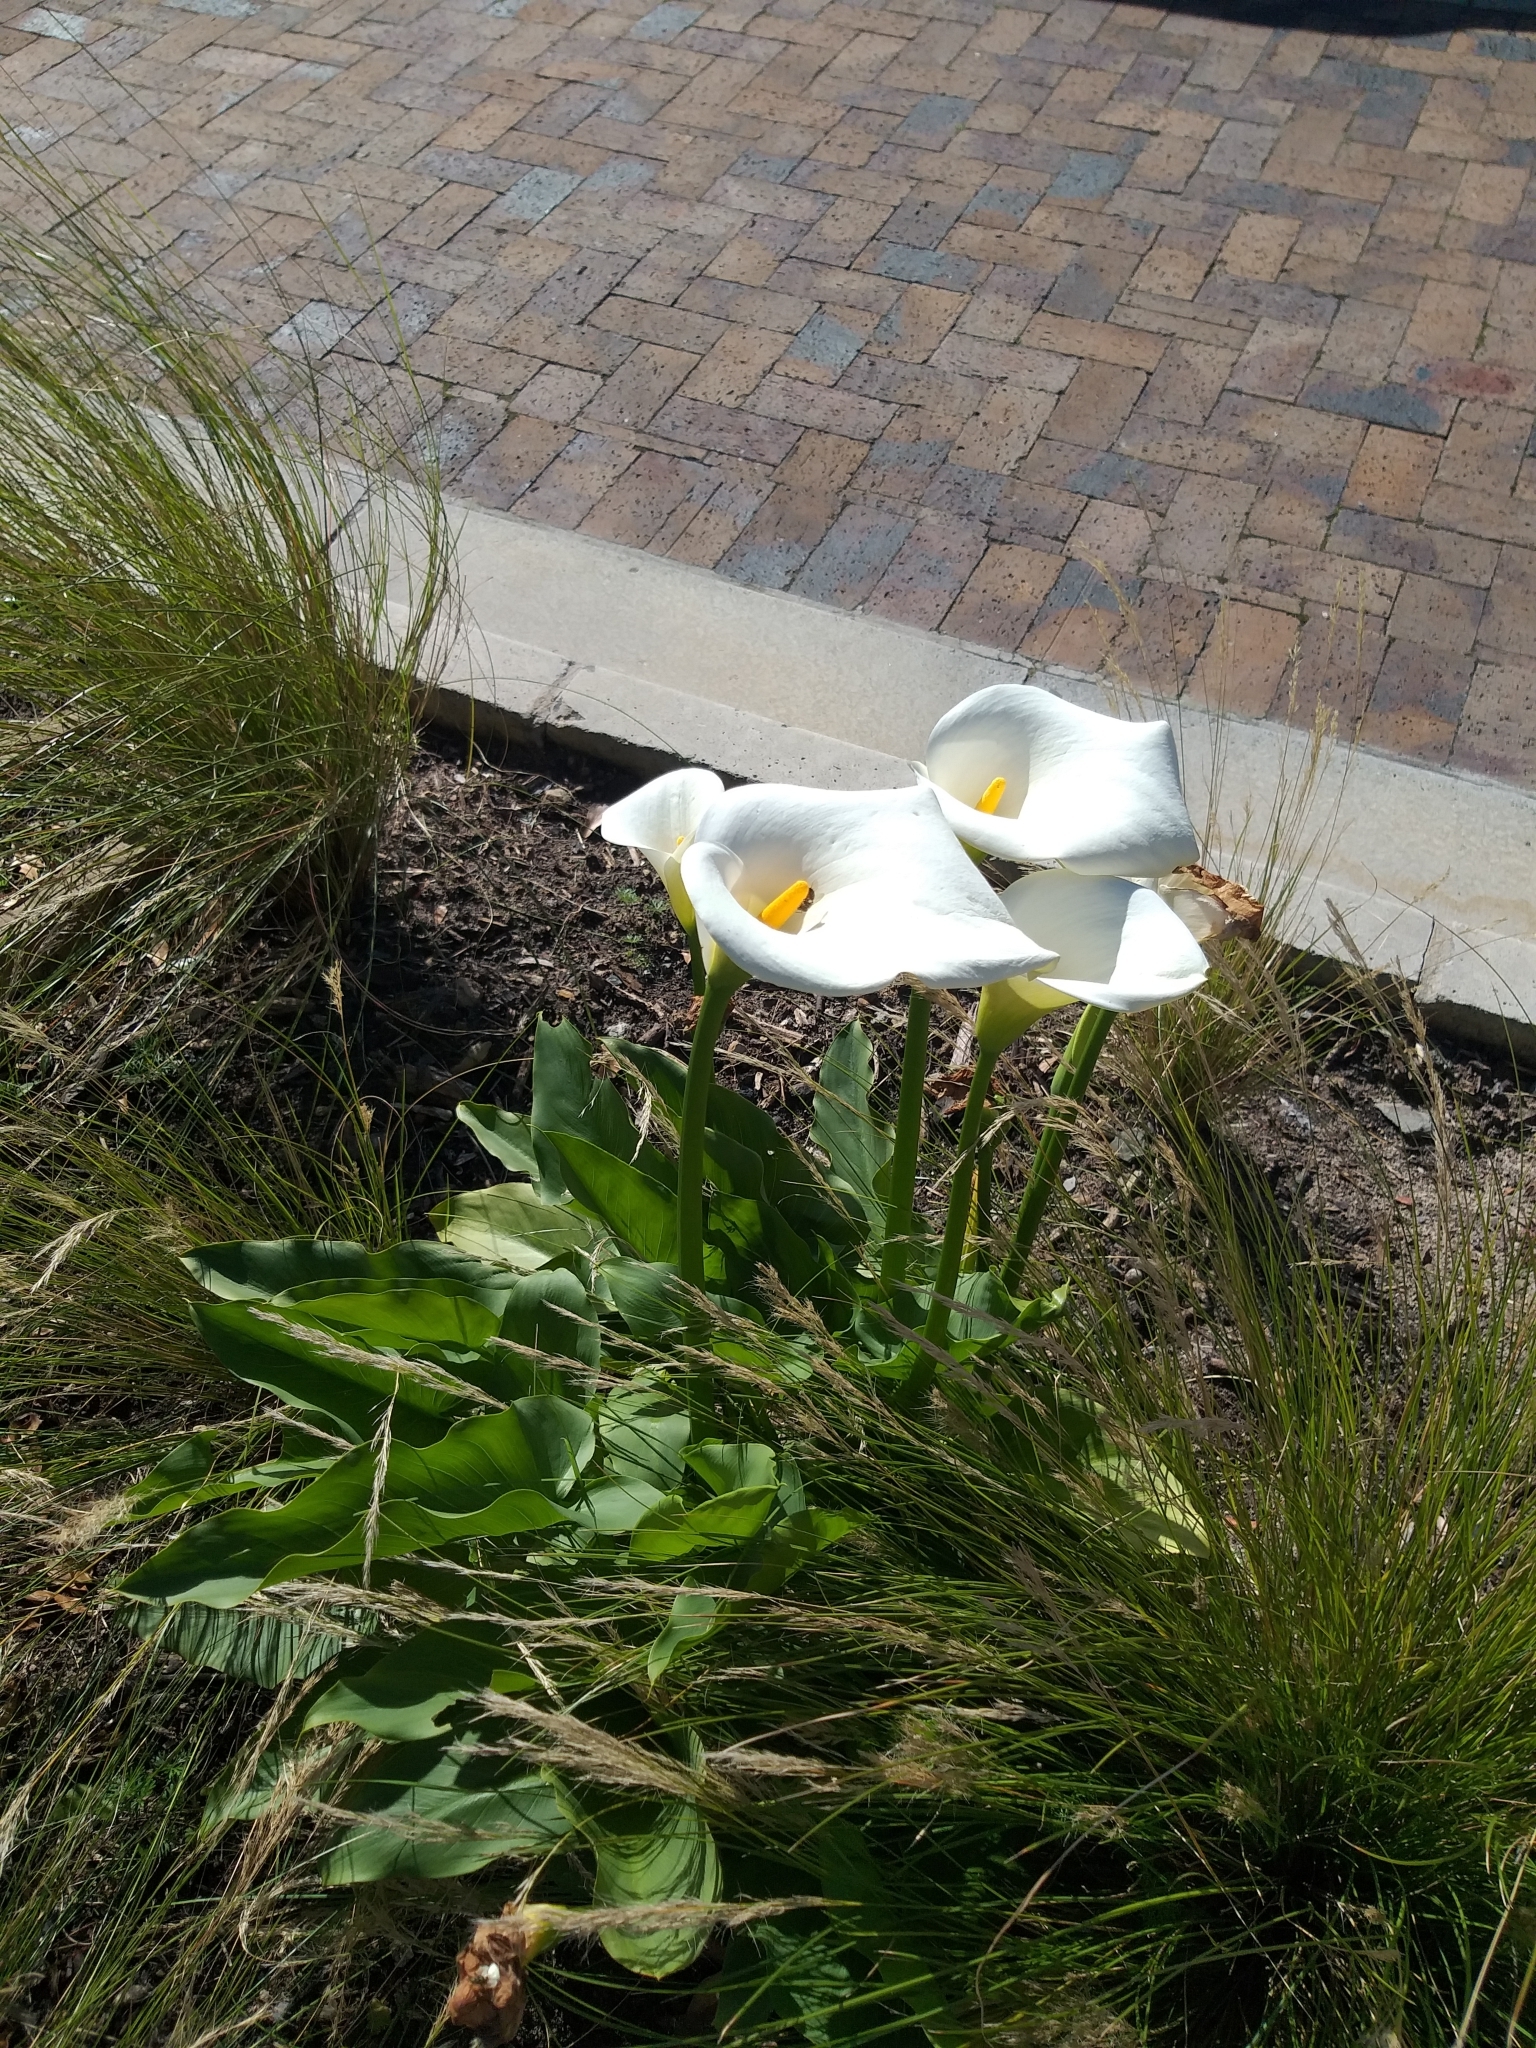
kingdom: Plantae
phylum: Tracheophyta
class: Liliopsida
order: Alismatales
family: Araceae
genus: Zantedeschia
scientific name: Zantedeschia aethiopica
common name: Altar-lily
